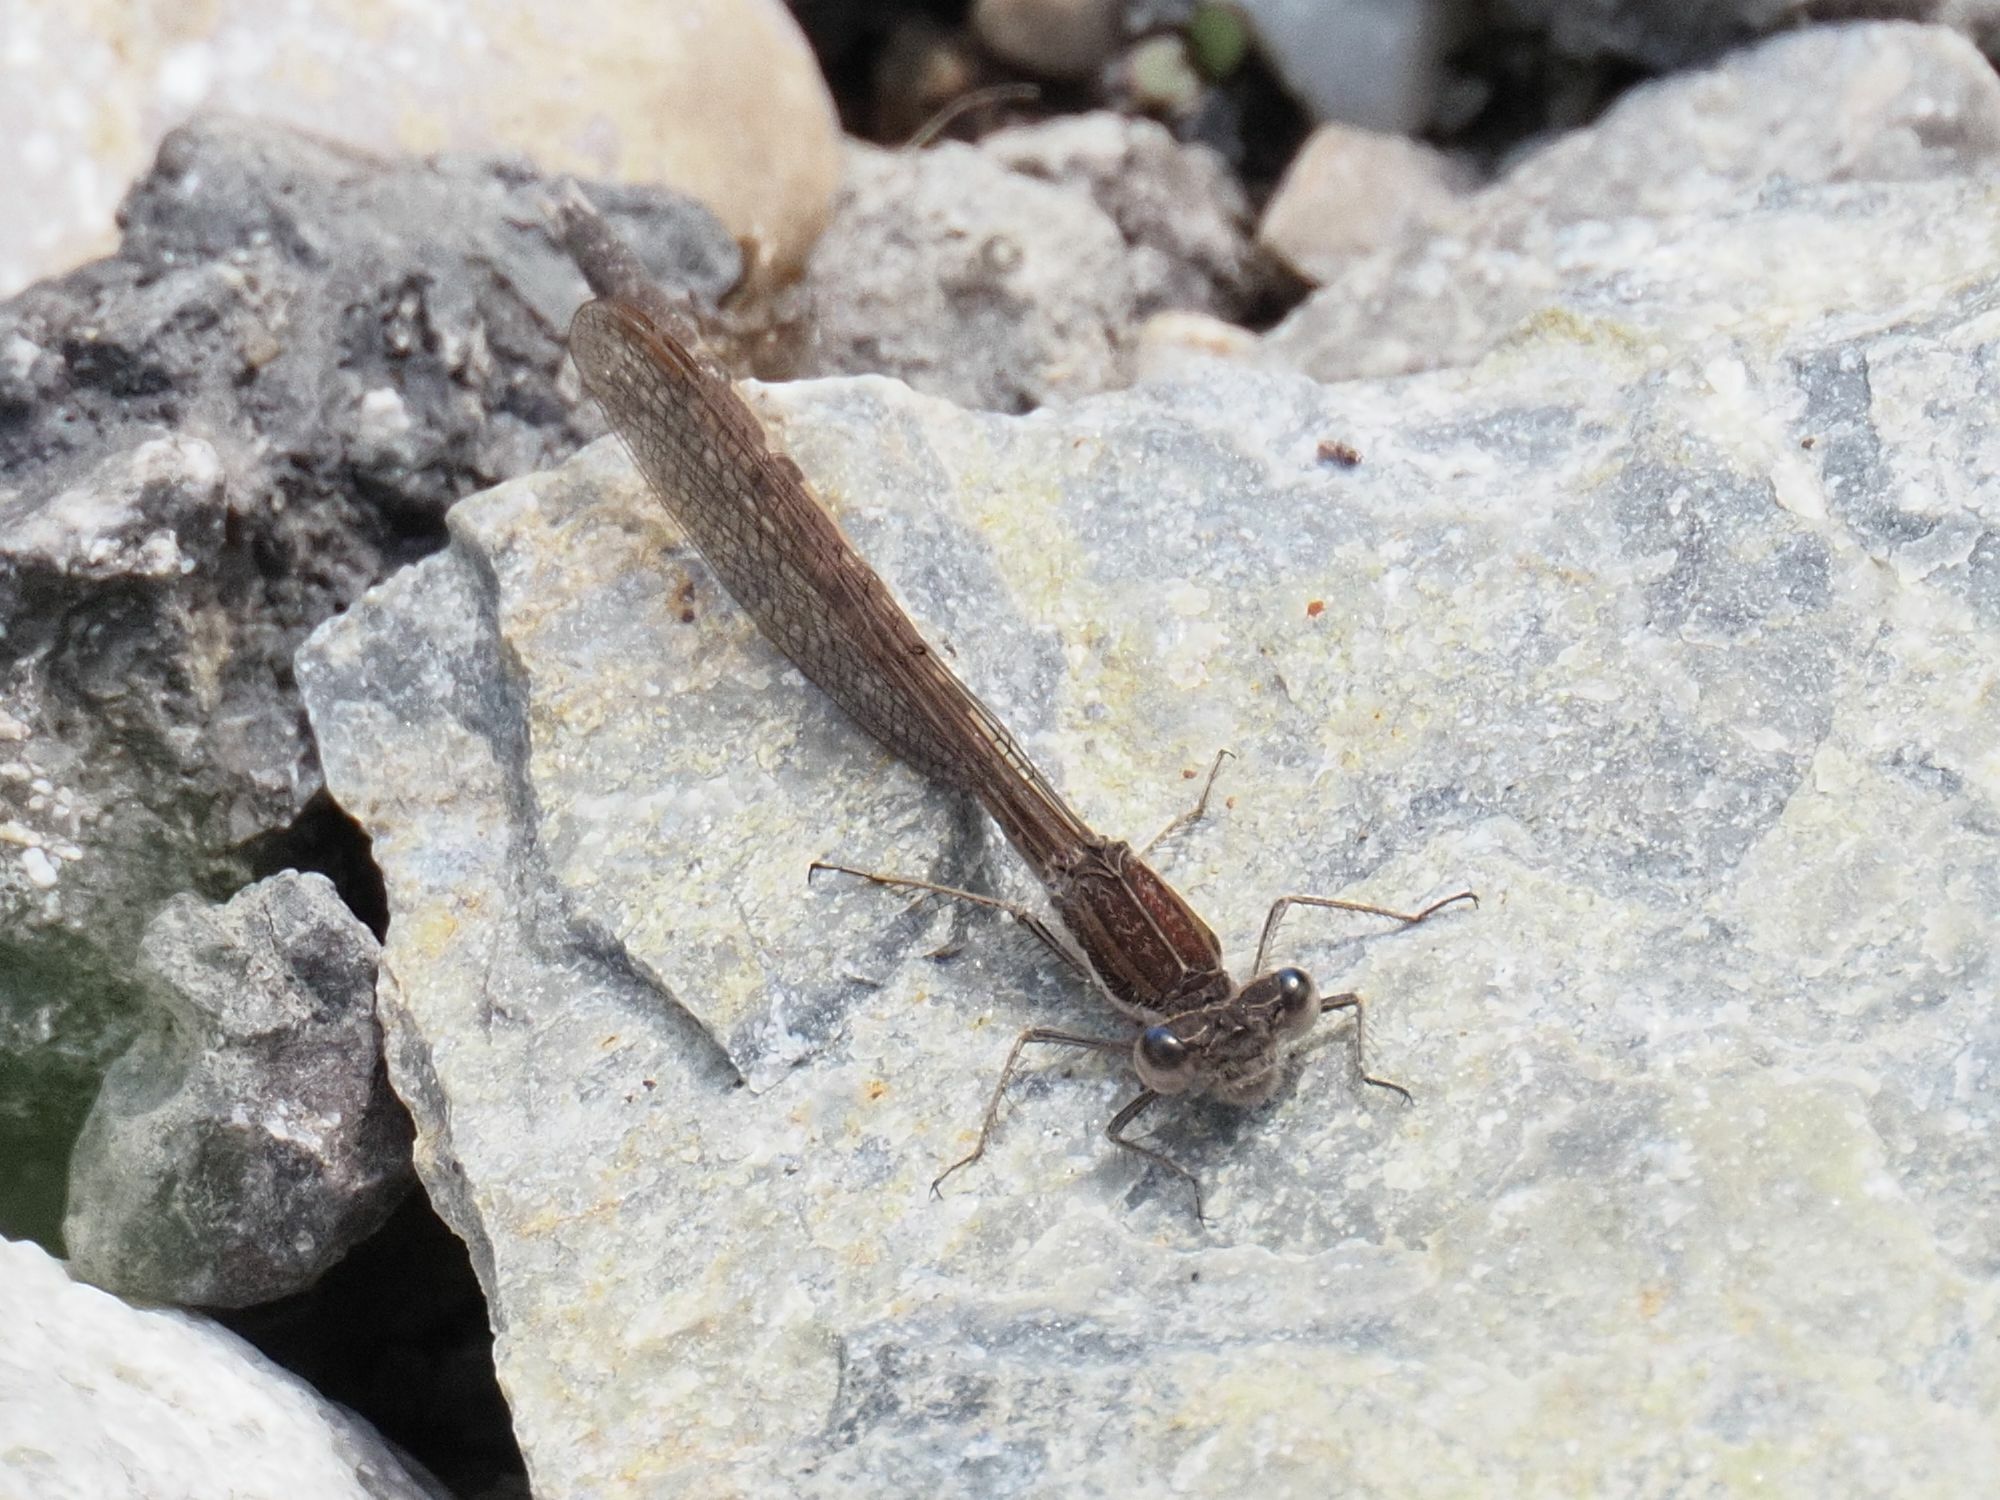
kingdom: Animalia
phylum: Arthropoda
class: Insecta
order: Odonata
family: Lestidae
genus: Sympecma
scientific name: Sympecma fusca
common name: Common winter damsel
